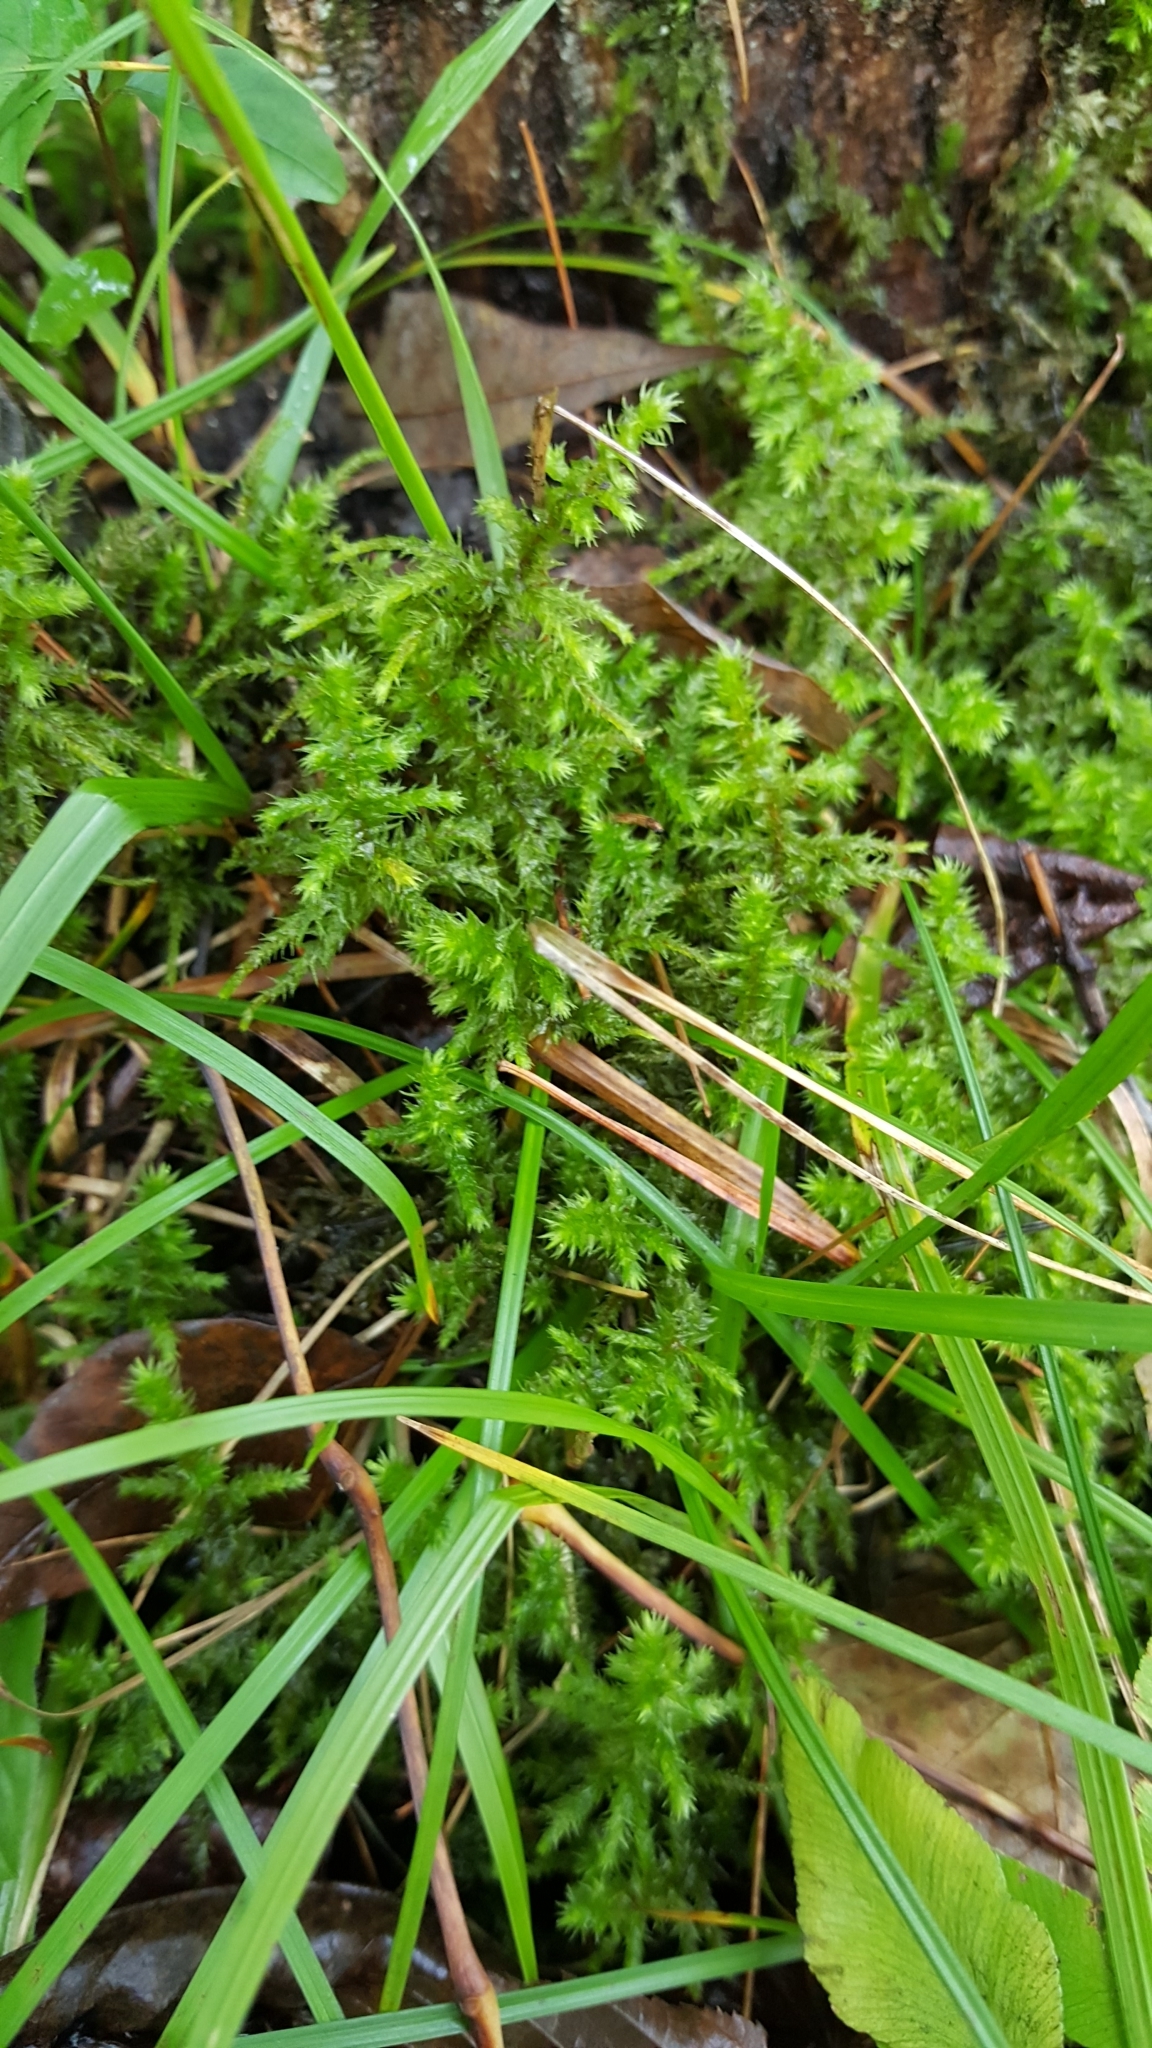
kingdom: Plantae
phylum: Bryophyta
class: Bryopsida
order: Hypnales
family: Hylocomiaceae
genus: Hylocomiadelphus
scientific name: Hylocomiadelphus triquetrus
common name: Rough goose neck moss
